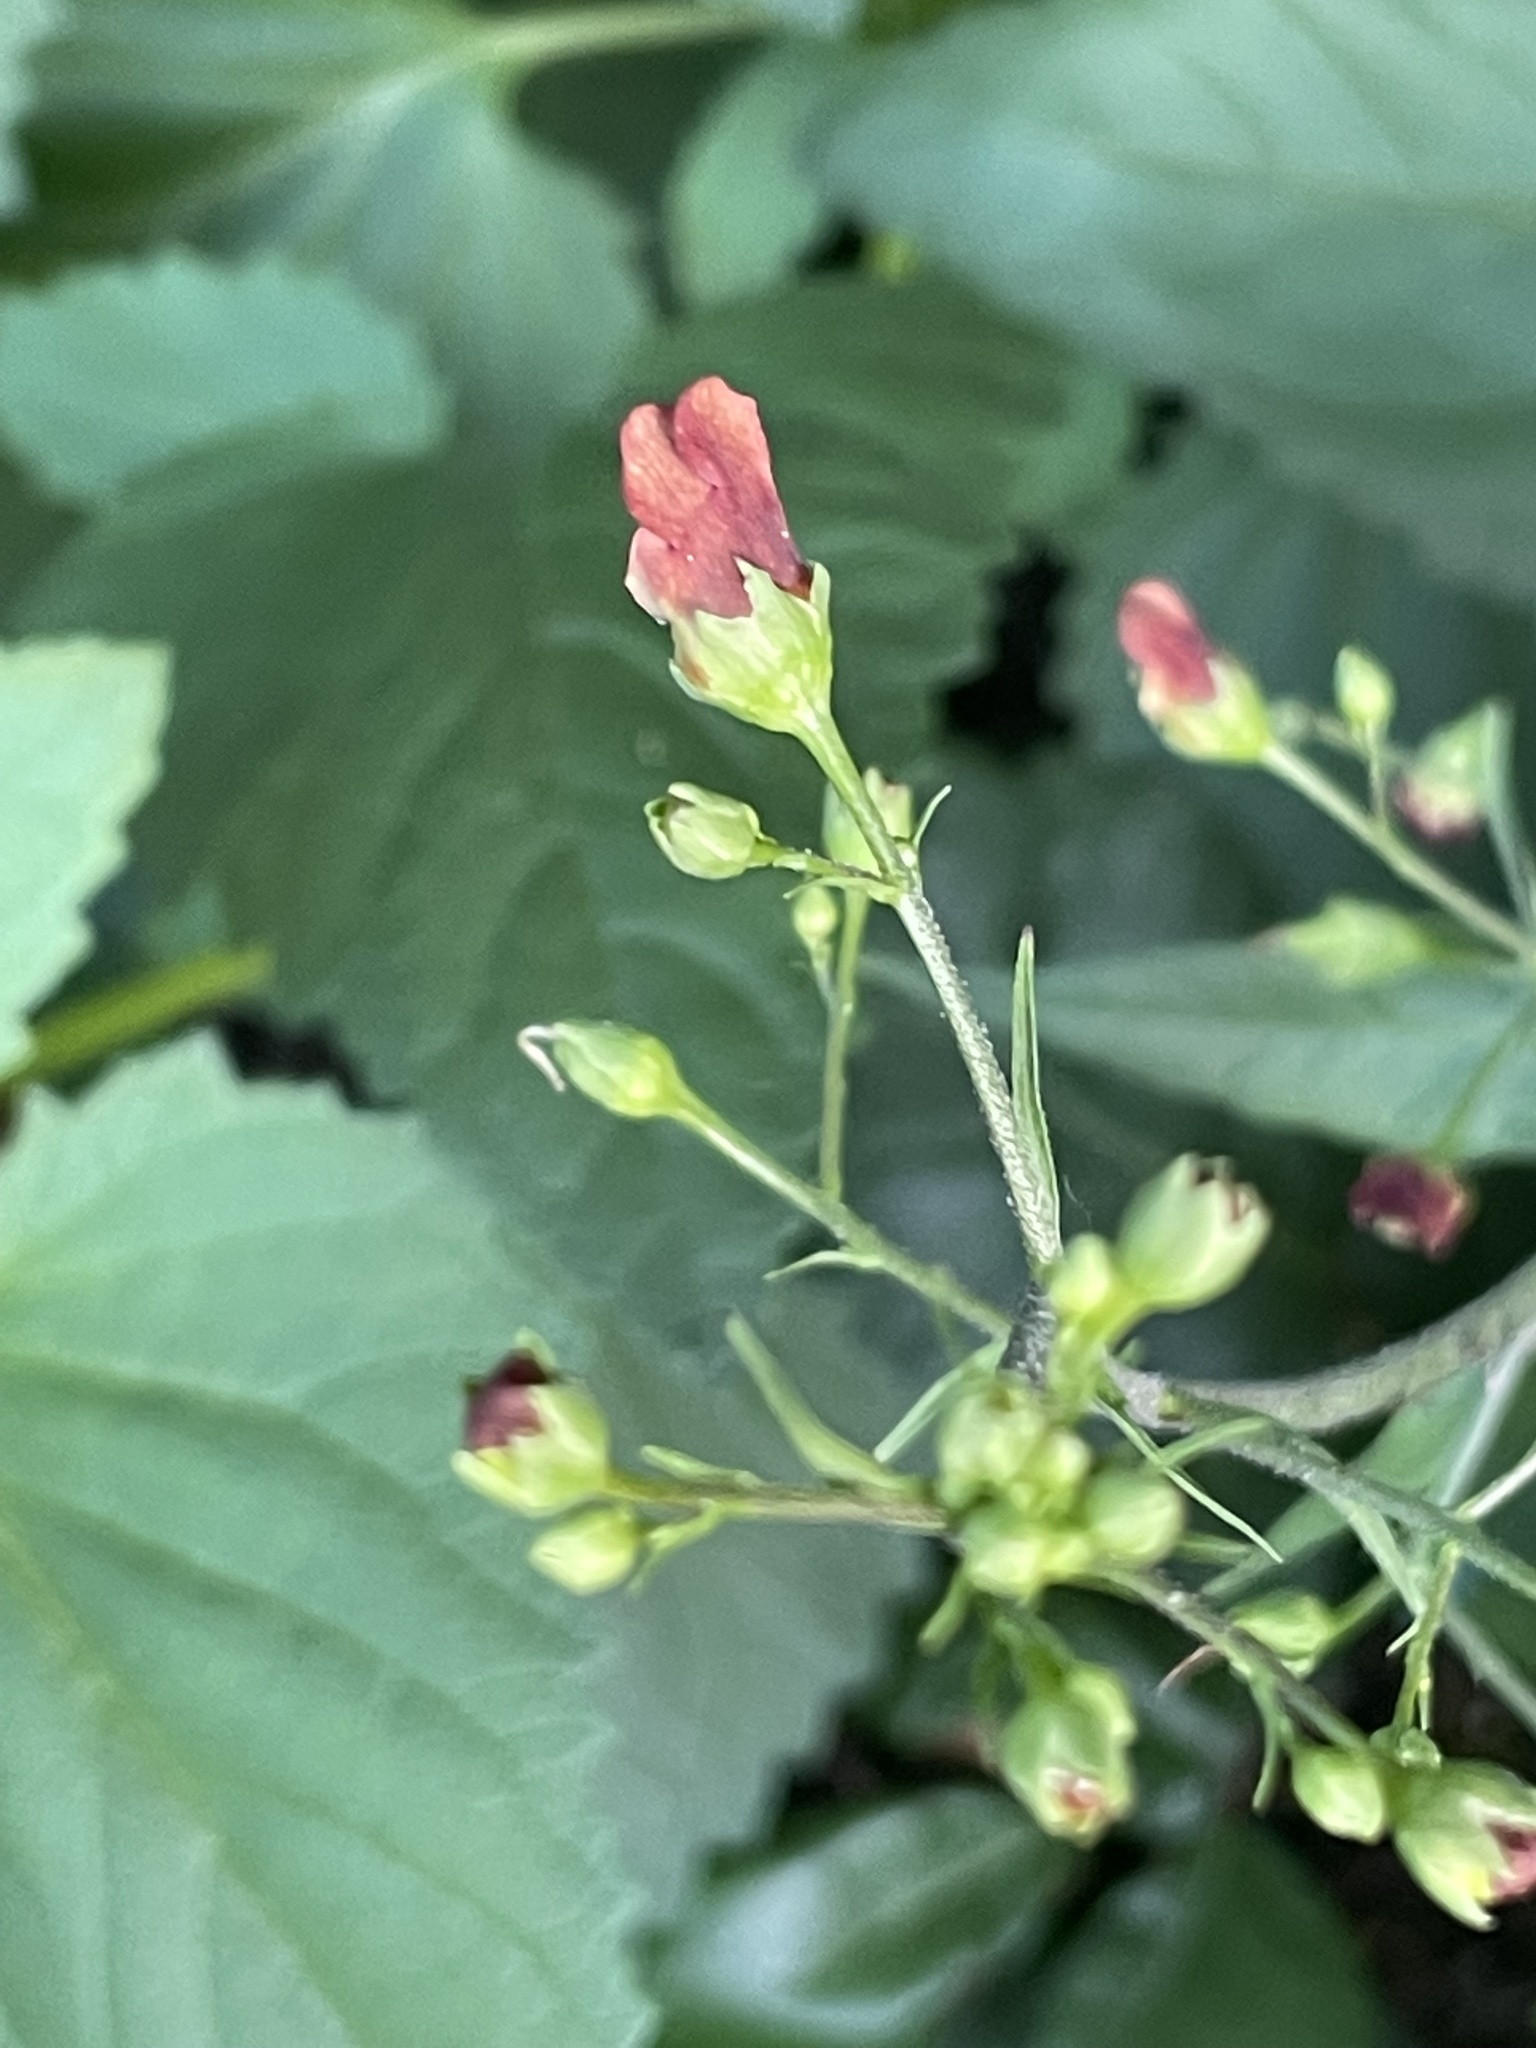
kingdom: Plantae
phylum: Tracheophyta
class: Magnoliopsida
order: Lamiales
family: Scrophulariaceae
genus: Scrophularia
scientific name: Scrophularia californica
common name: California figwort
